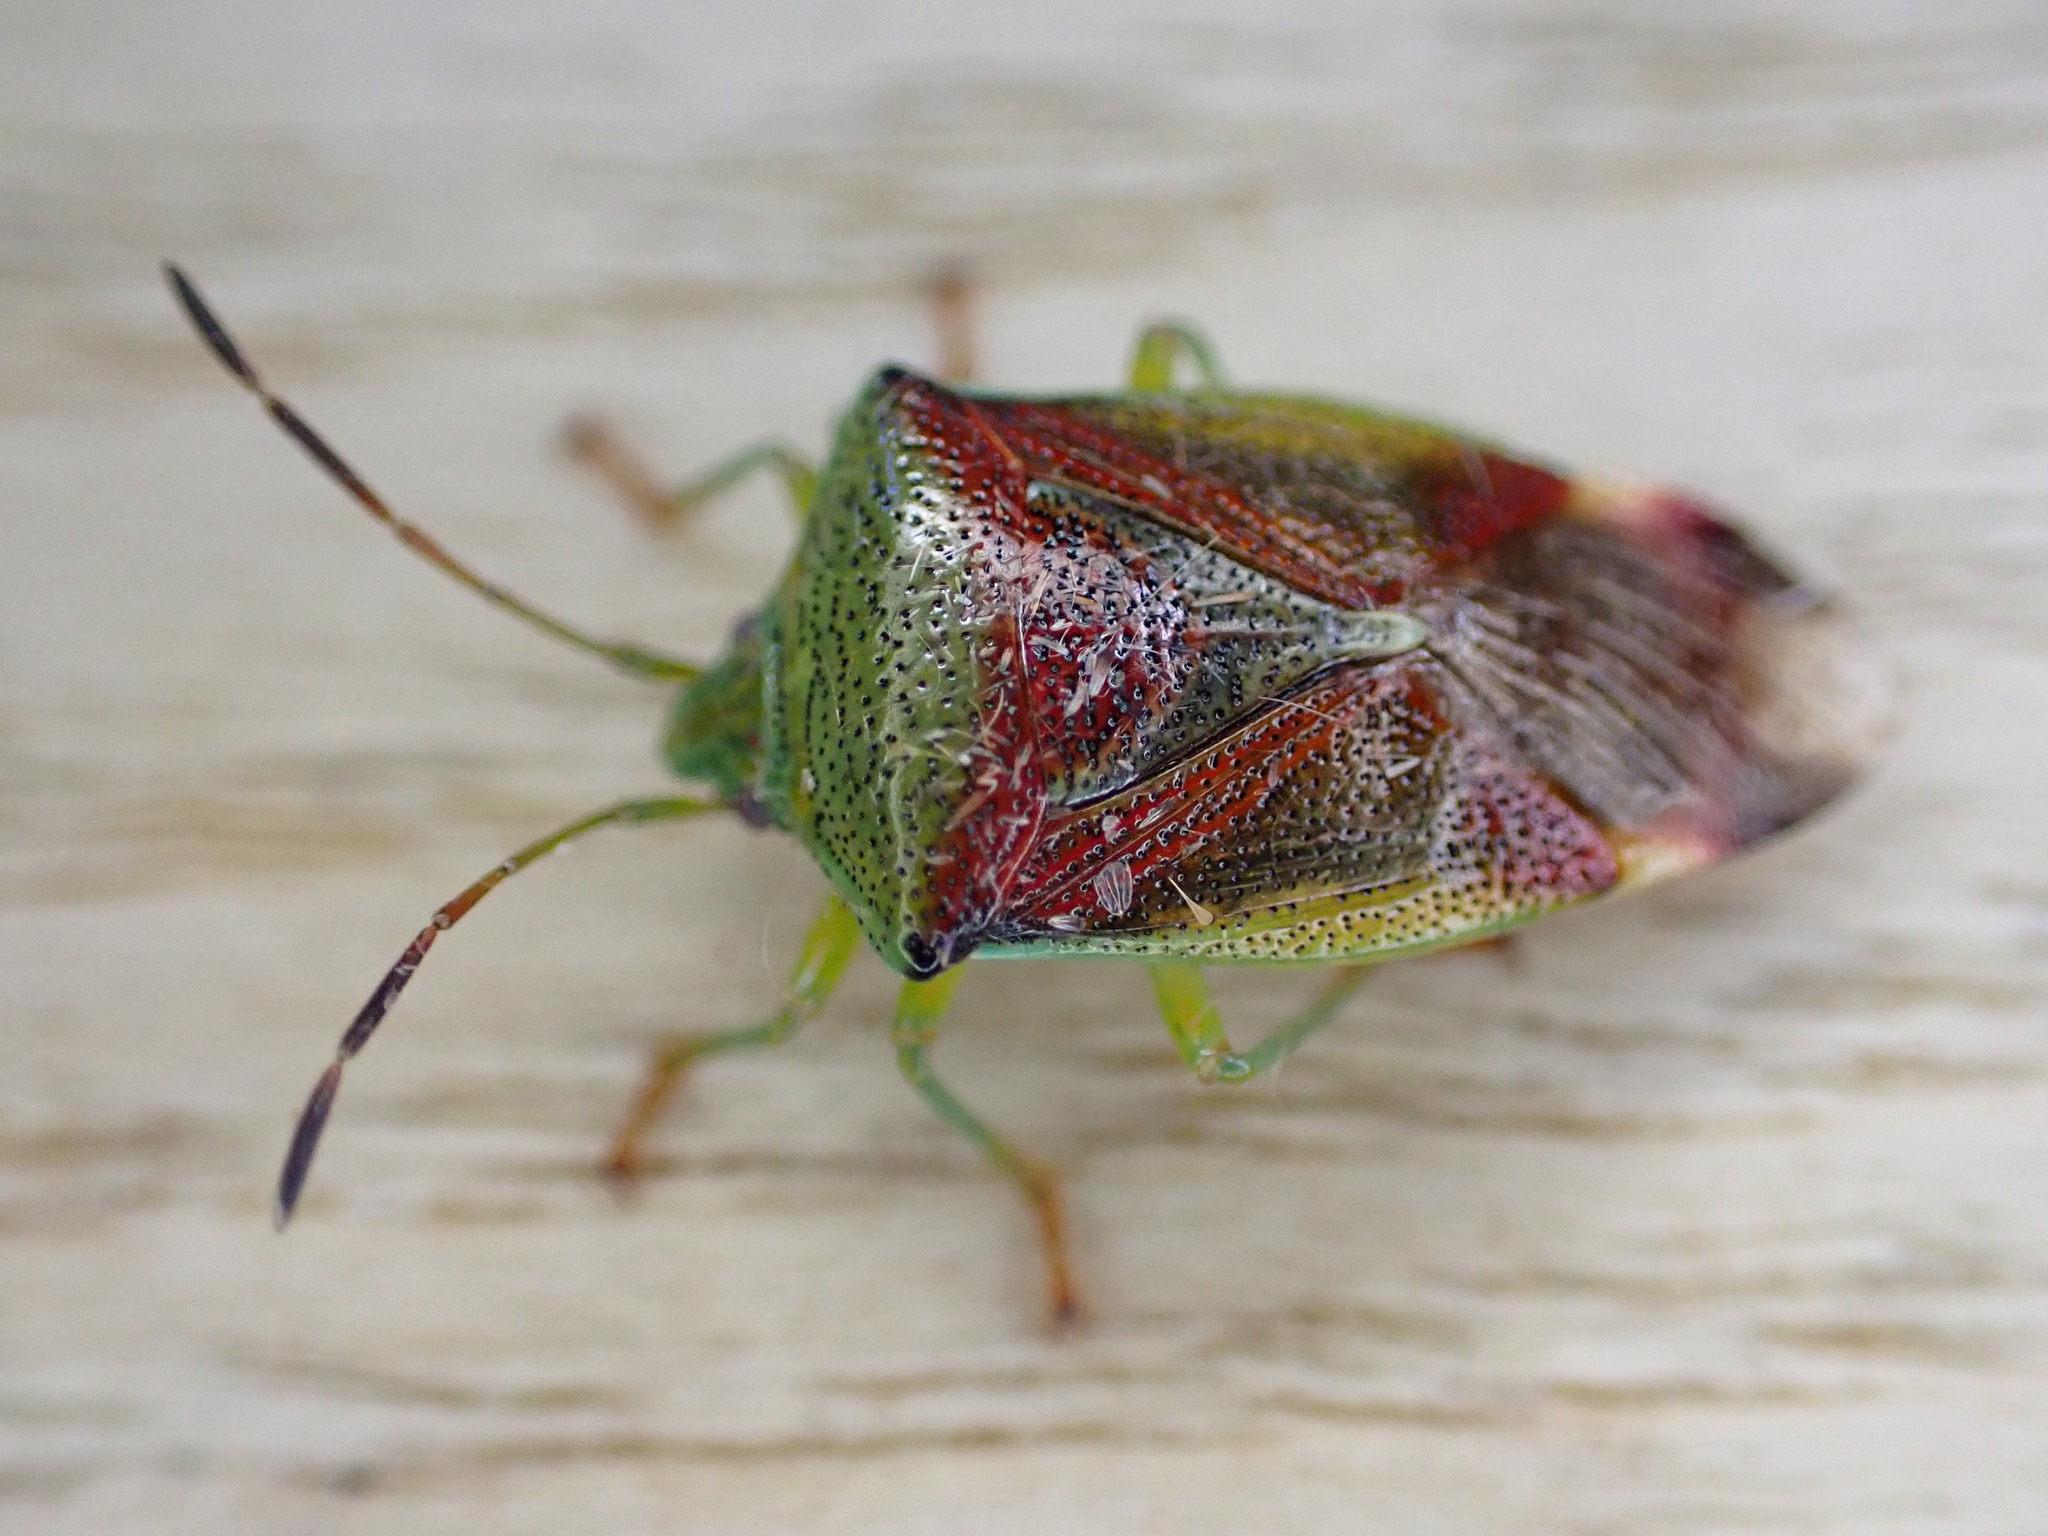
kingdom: Animalia
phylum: Arthropoda
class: Insecta
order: Hemiptera
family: Acanthosomatidae
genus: Elasmostethus
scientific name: Elasmostethus interstinctus
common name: Birch shieldbug
